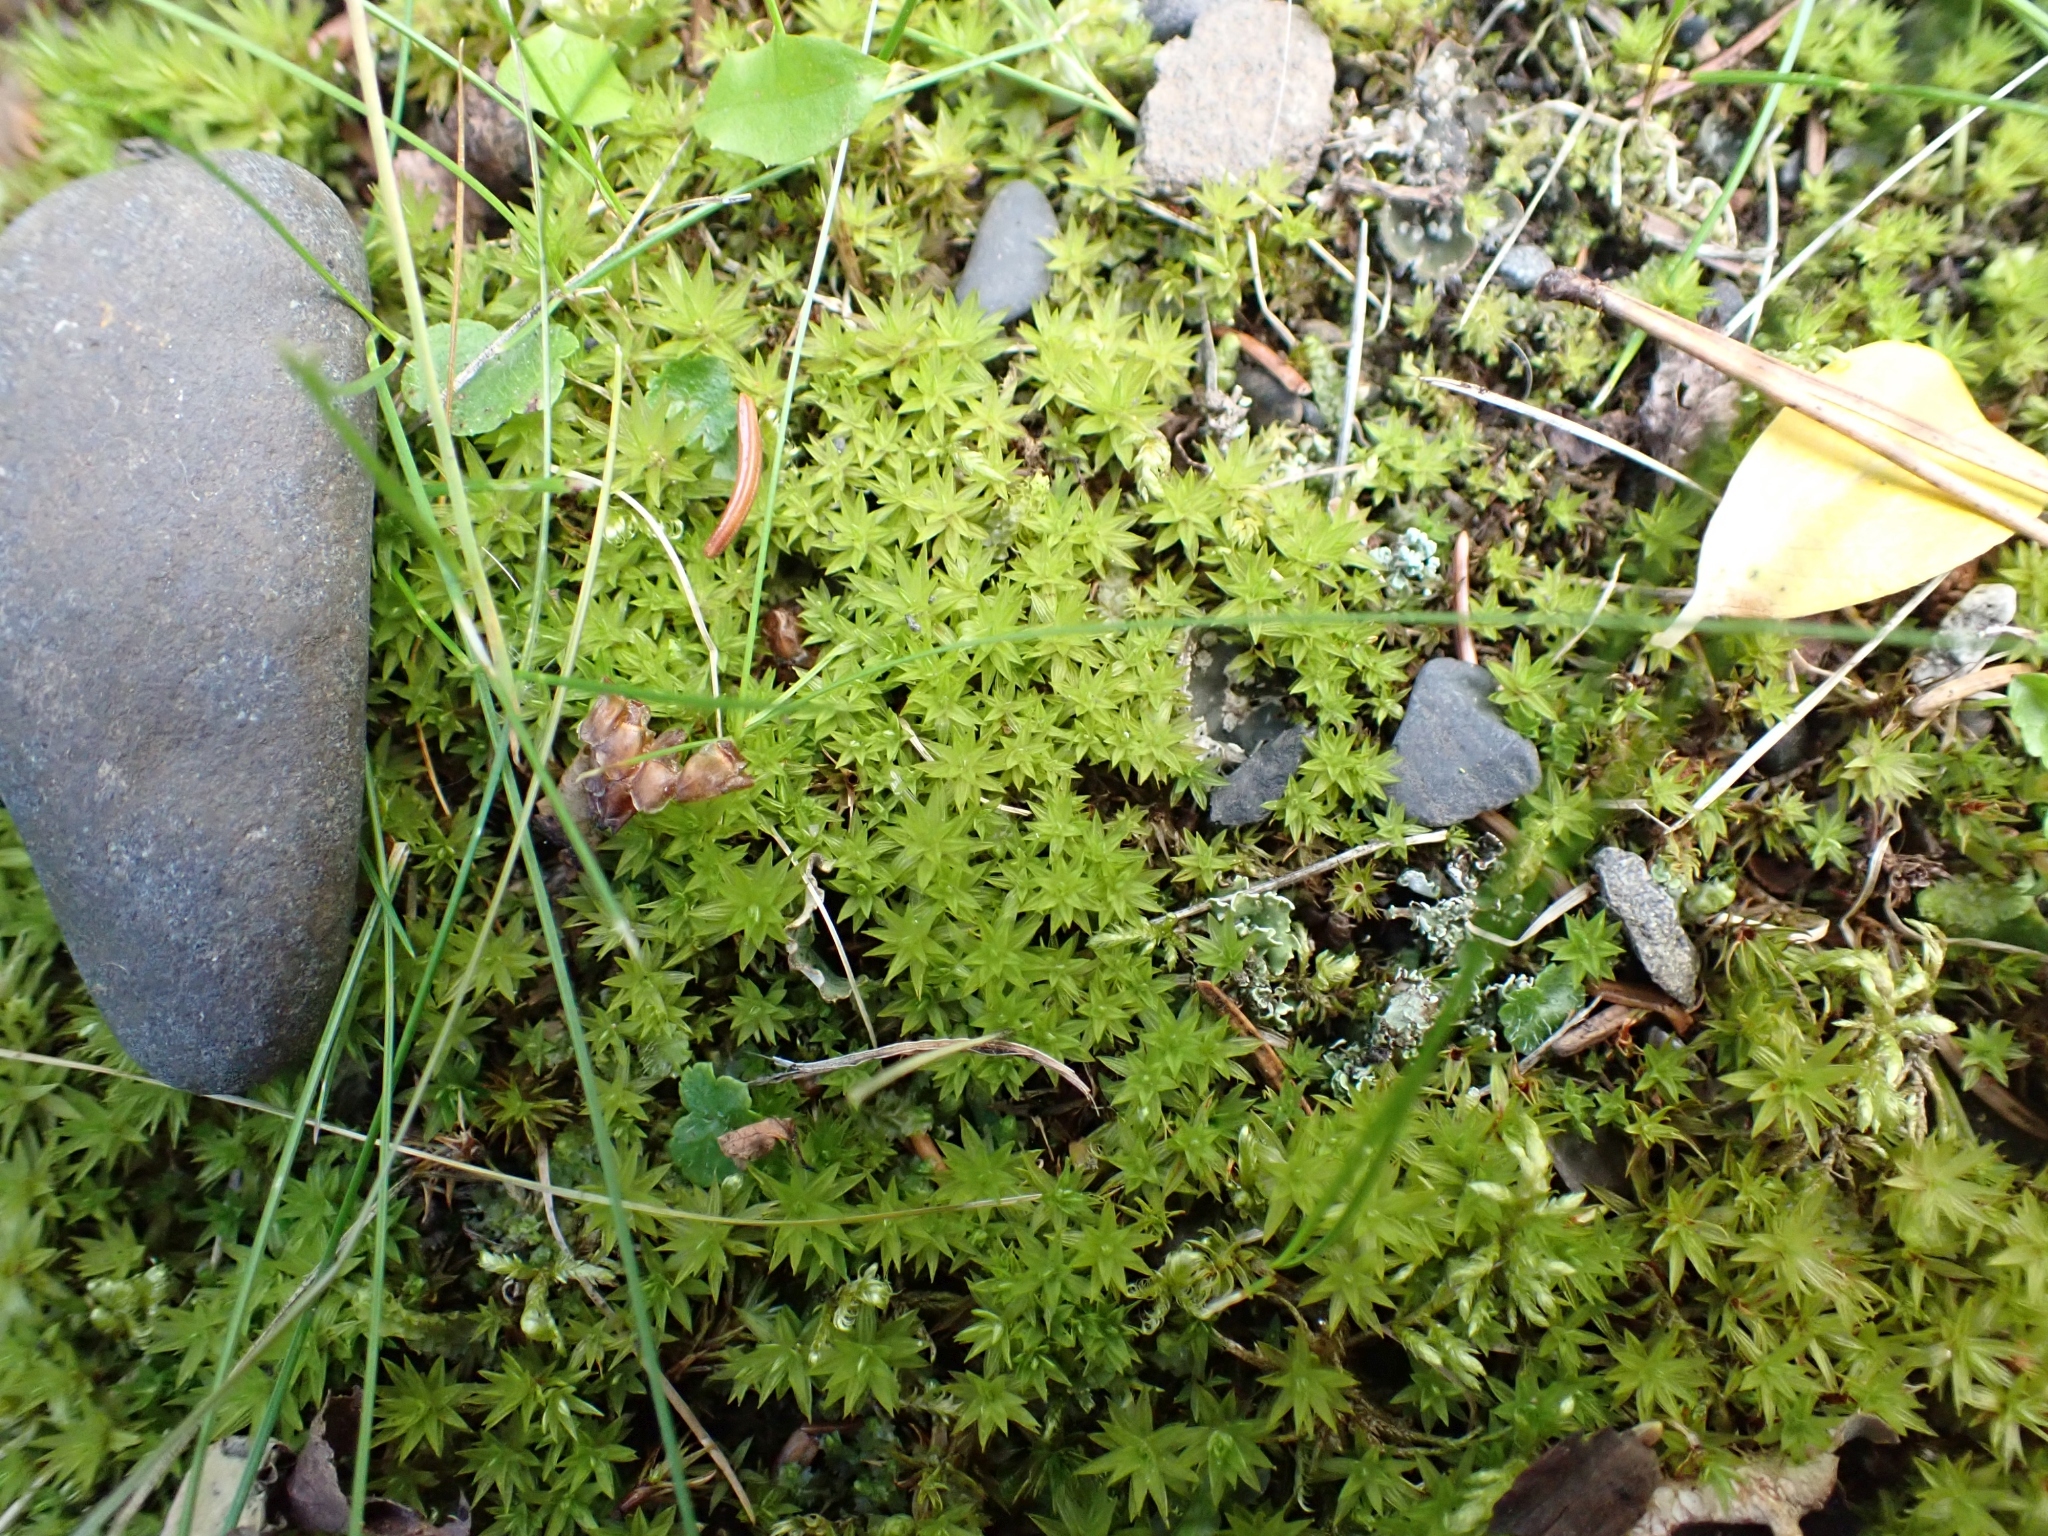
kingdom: Plantae
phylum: Bryophyta
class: Bryopsida
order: Timmiales
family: Timmiaceae
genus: Timmia
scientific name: Timmia austriaca
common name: Austrian timmia
